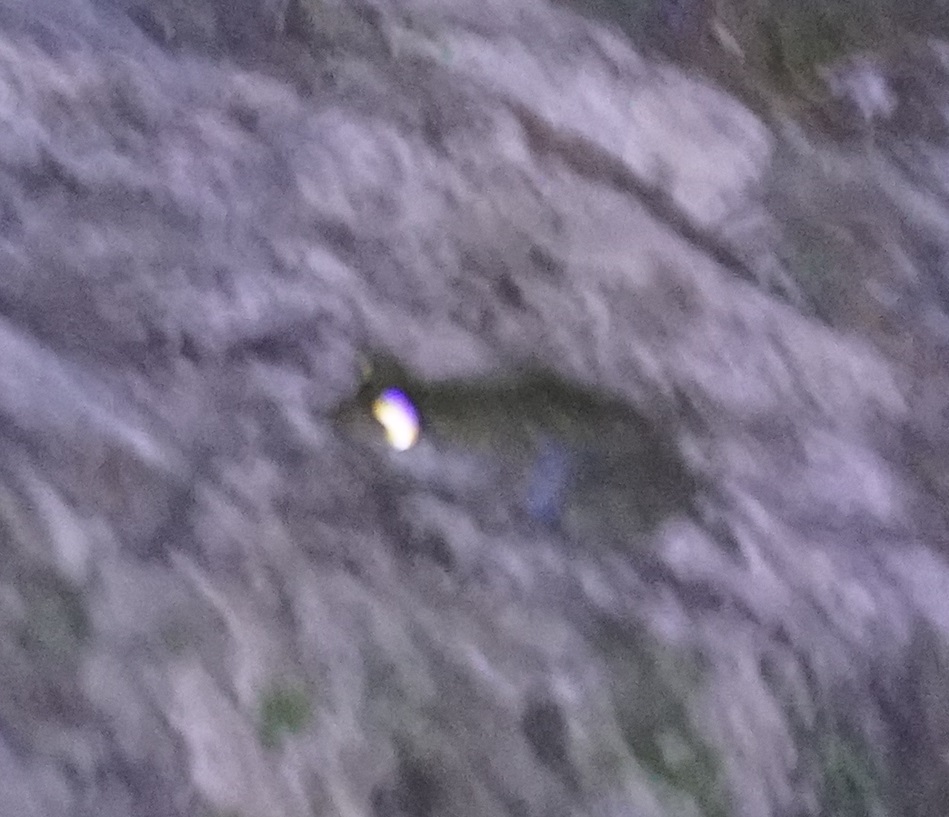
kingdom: Animalia
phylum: Chordata
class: Amphibia
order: Anura
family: Pelodryadidae
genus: Ranoidea
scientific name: Ranoidea nannotis
